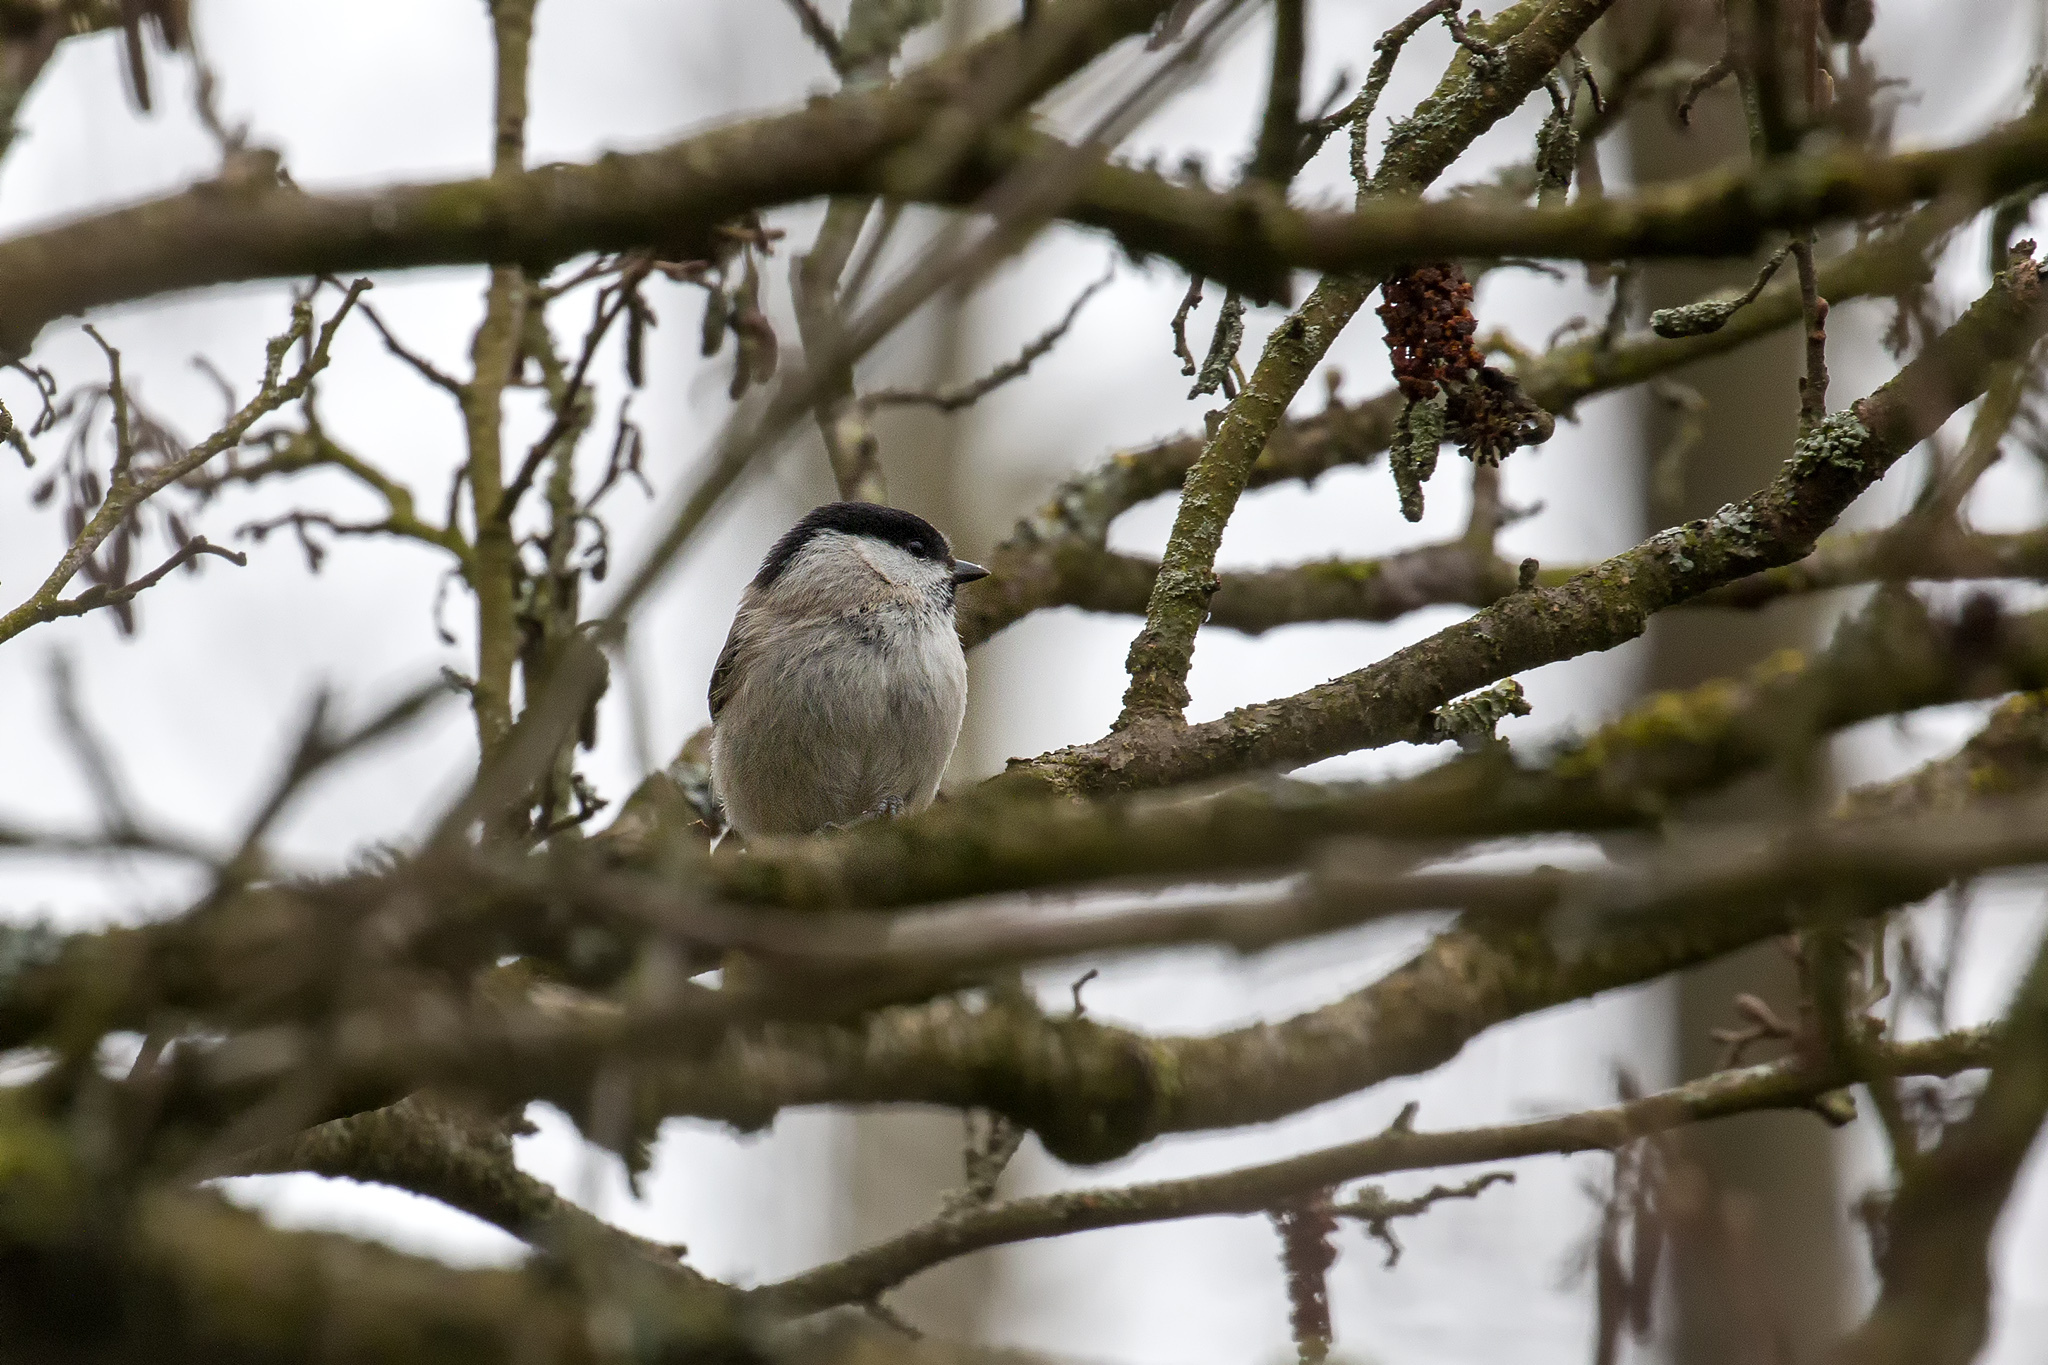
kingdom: Animalia
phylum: Chordata
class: Aves
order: Passeriformes
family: Paridae
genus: Poecile
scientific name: Poecile palustris
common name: Marsh tit
